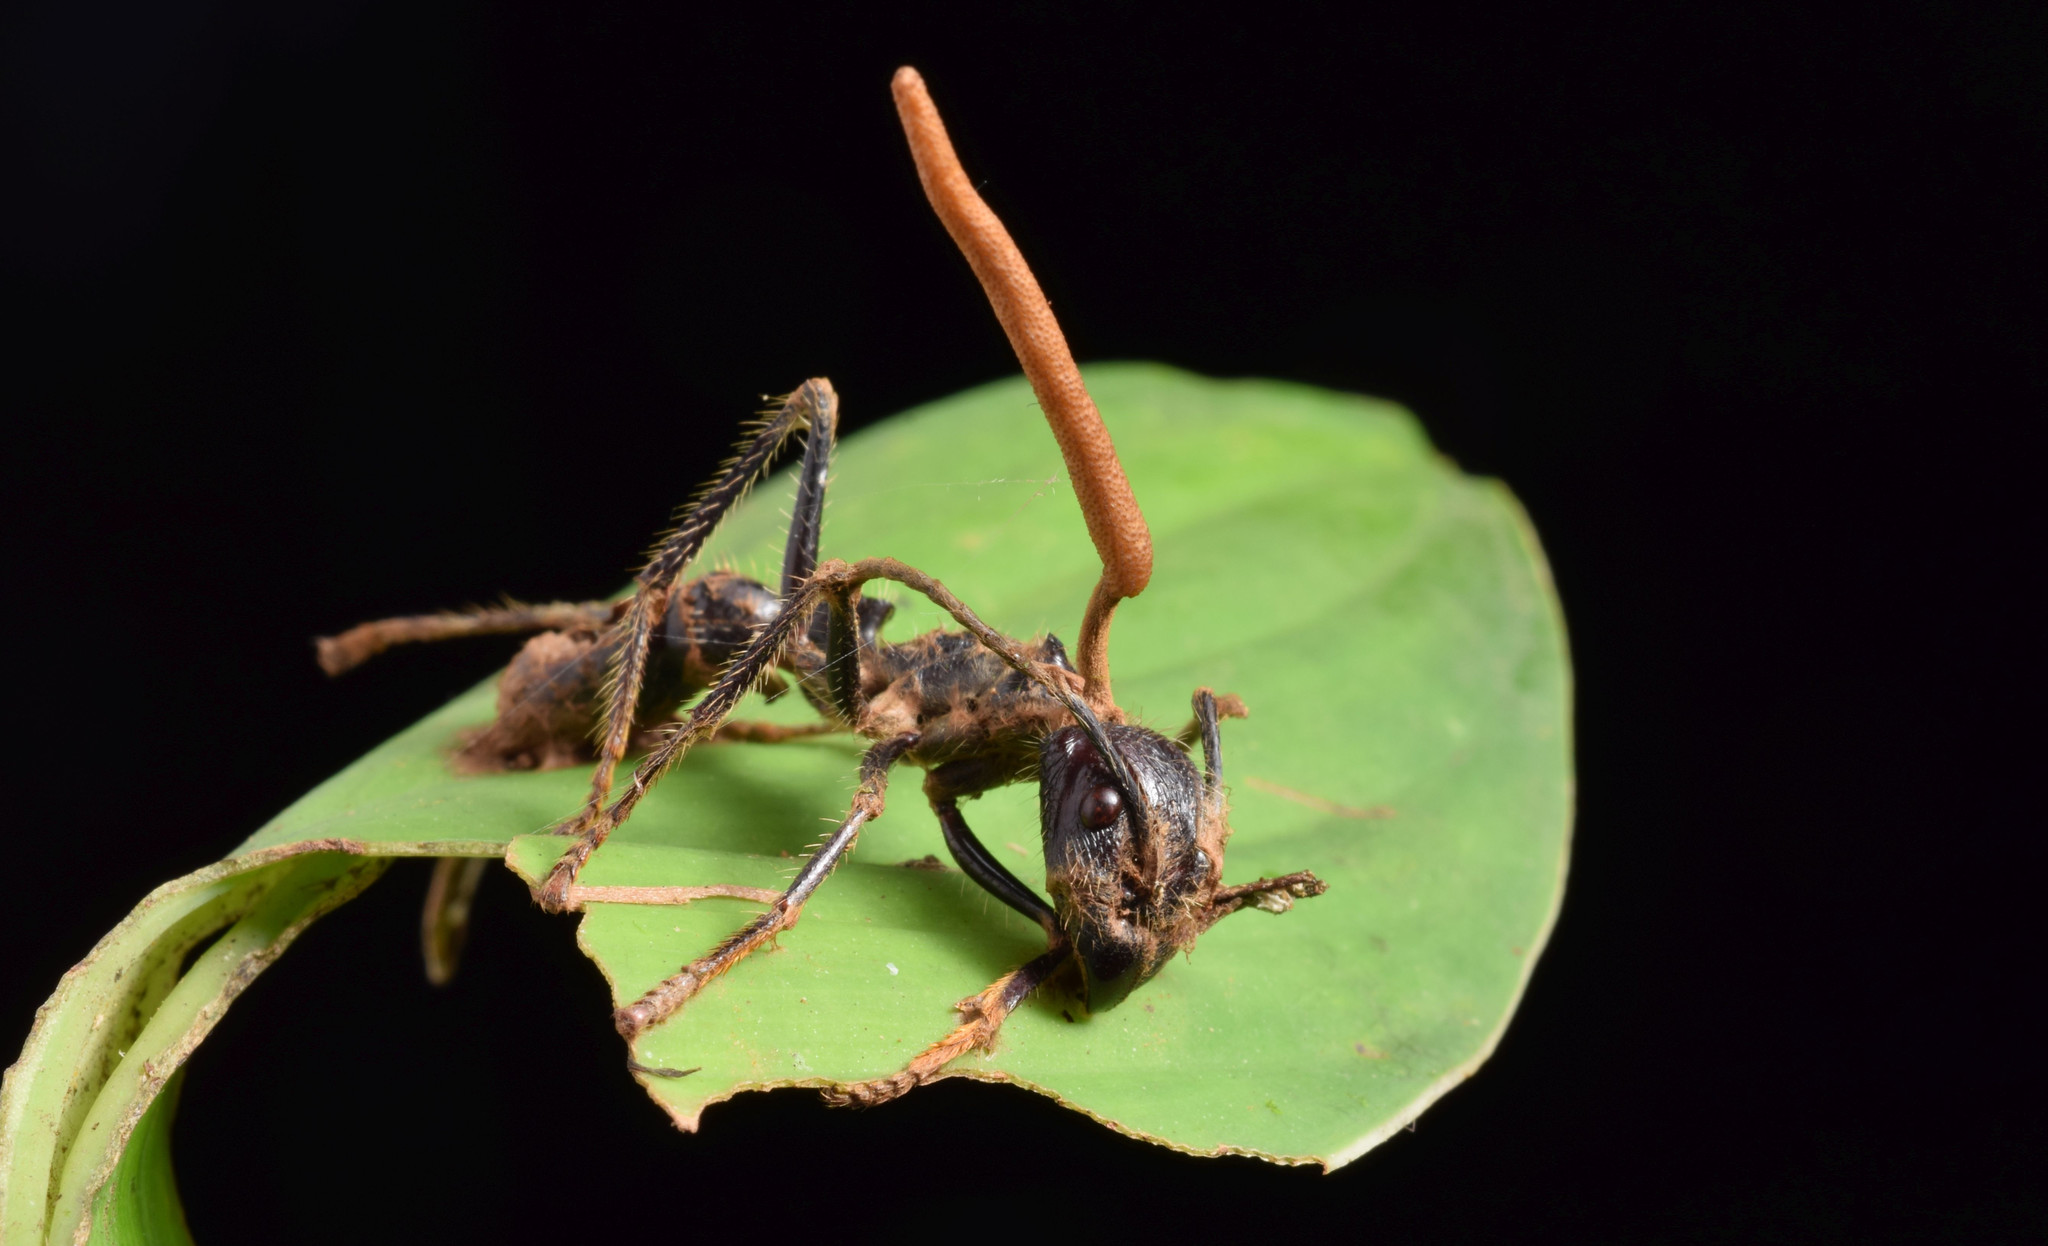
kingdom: Fungi
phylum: Ascomycota
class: Sordariomycetes
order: Hypocreales
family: Ophiocordycipitaceae
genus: Ophiocordyceps
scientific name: Ophiocordyceps ponerinarum
